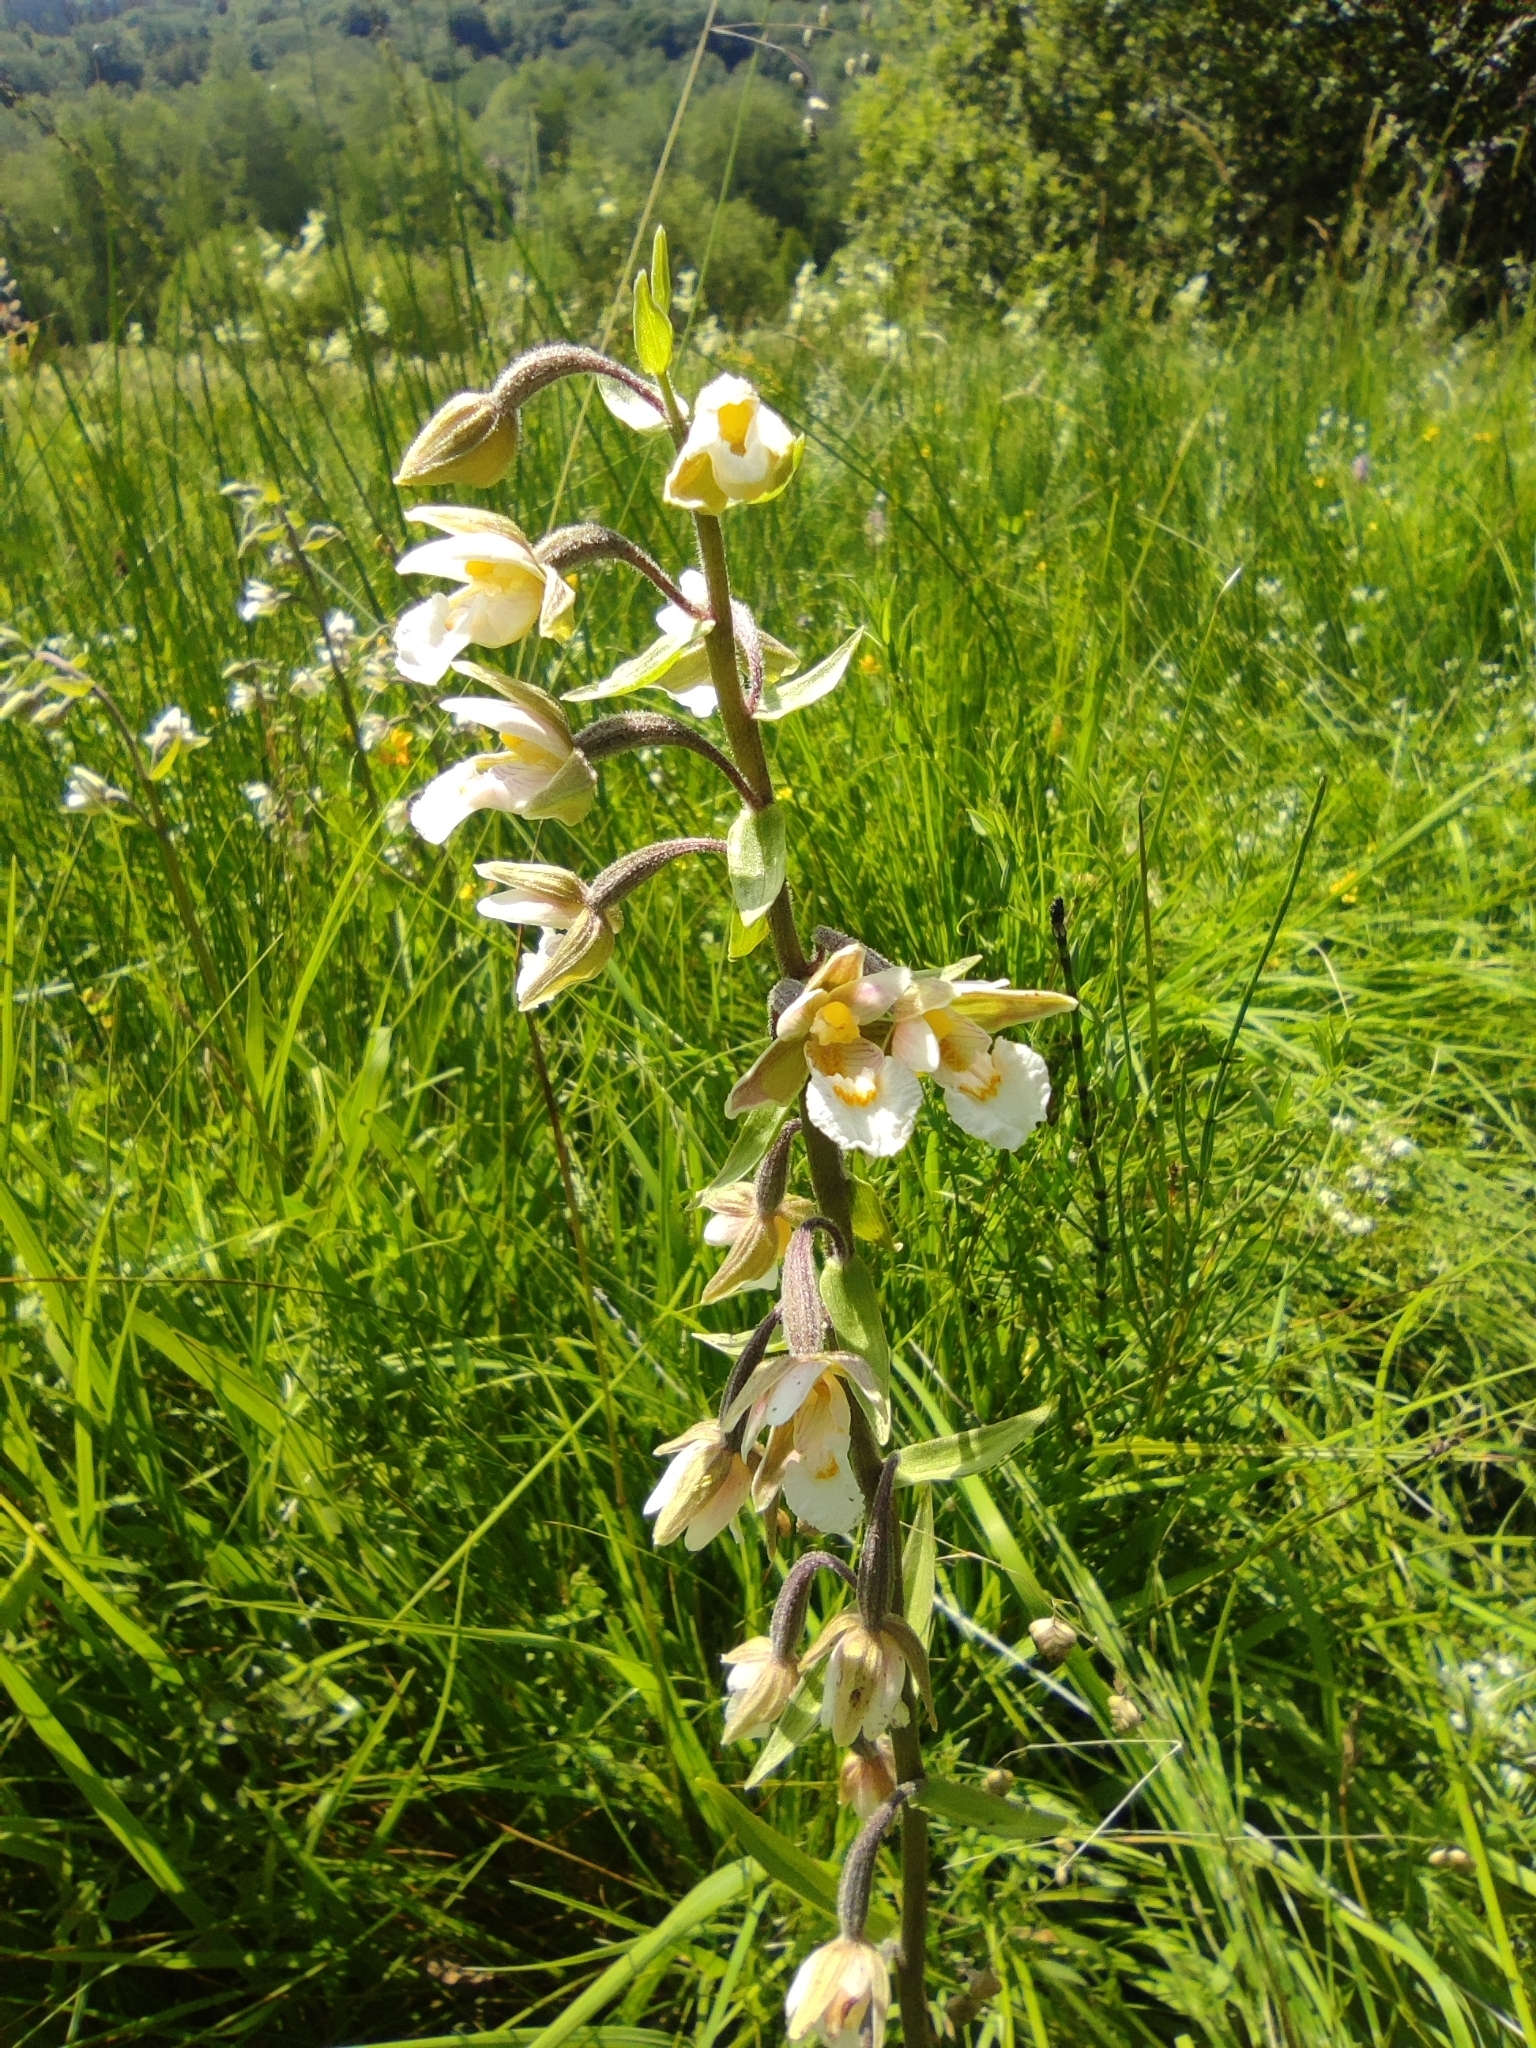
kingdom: Plantae
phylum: Tracheophyta
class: Liliopsida
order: Asparagales
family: Orchidaceae
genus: Epipactis
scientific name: Epipactis palustris
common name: Marsh helleborine
